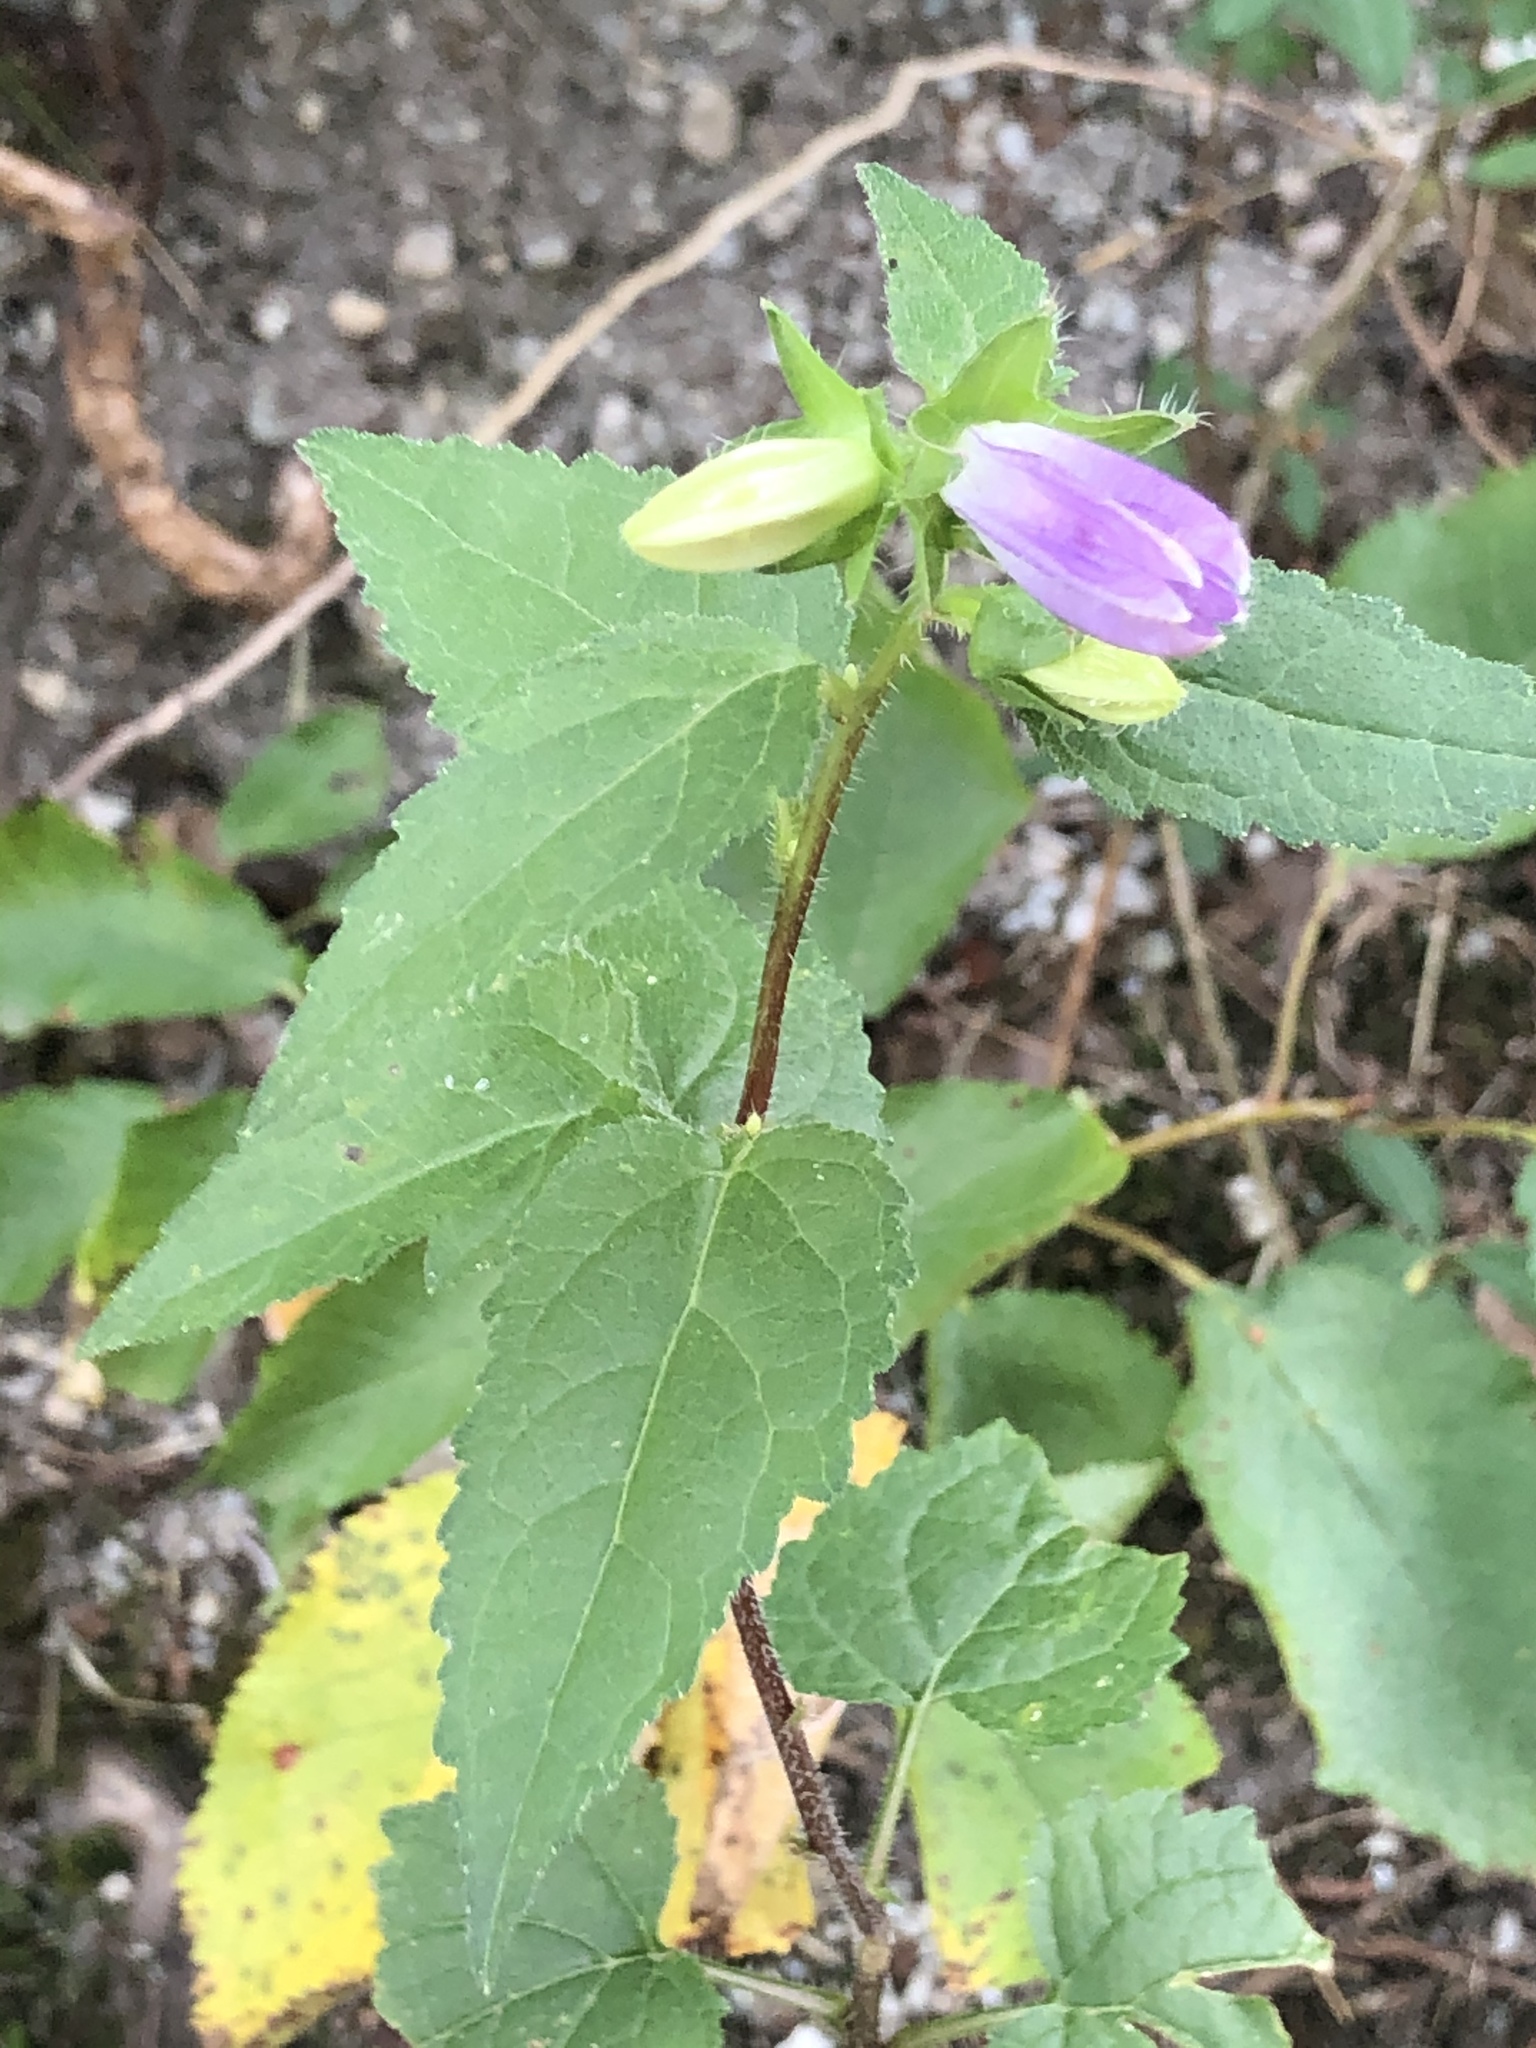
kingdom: Plantae
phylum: Tracheophyta
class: Magnoliopsida
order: Asterales
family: Campanulaceae
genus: Campanula
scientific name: Campanula trachelium
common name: Nettle-leaved bellflower
